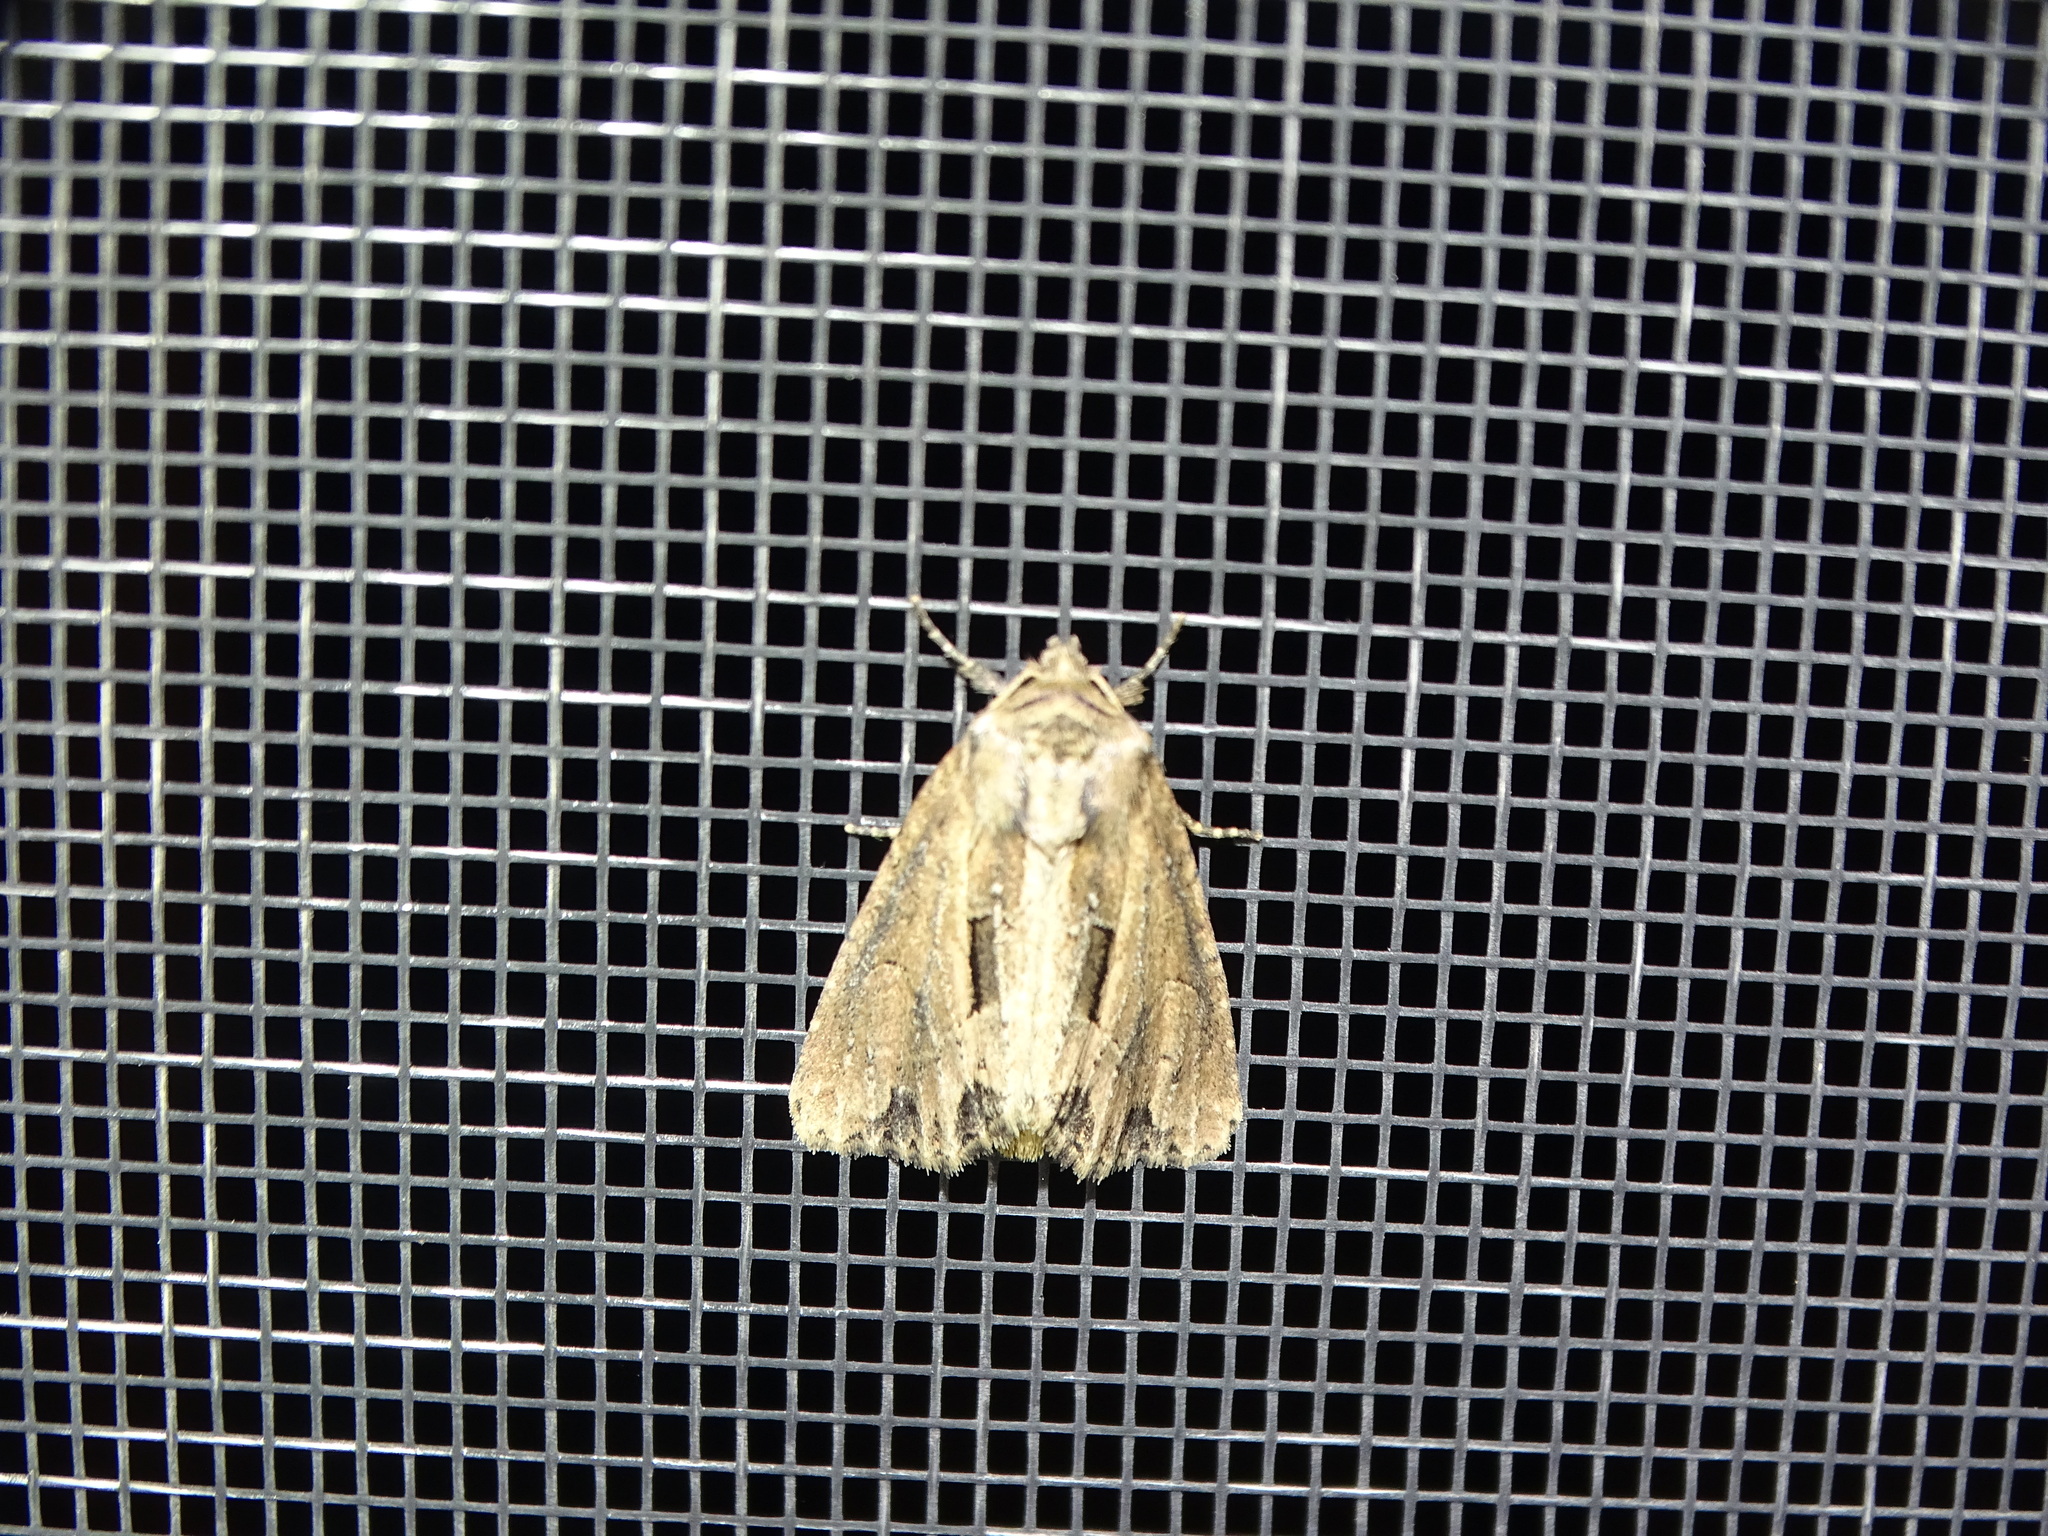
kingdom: Animalia
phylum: Arthropoda
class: Insecta
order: Lepidoptera
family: Noctuidae
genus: Xylomoia
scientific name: Xylomoia chagnoni
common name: Reed canary grass borer moth
